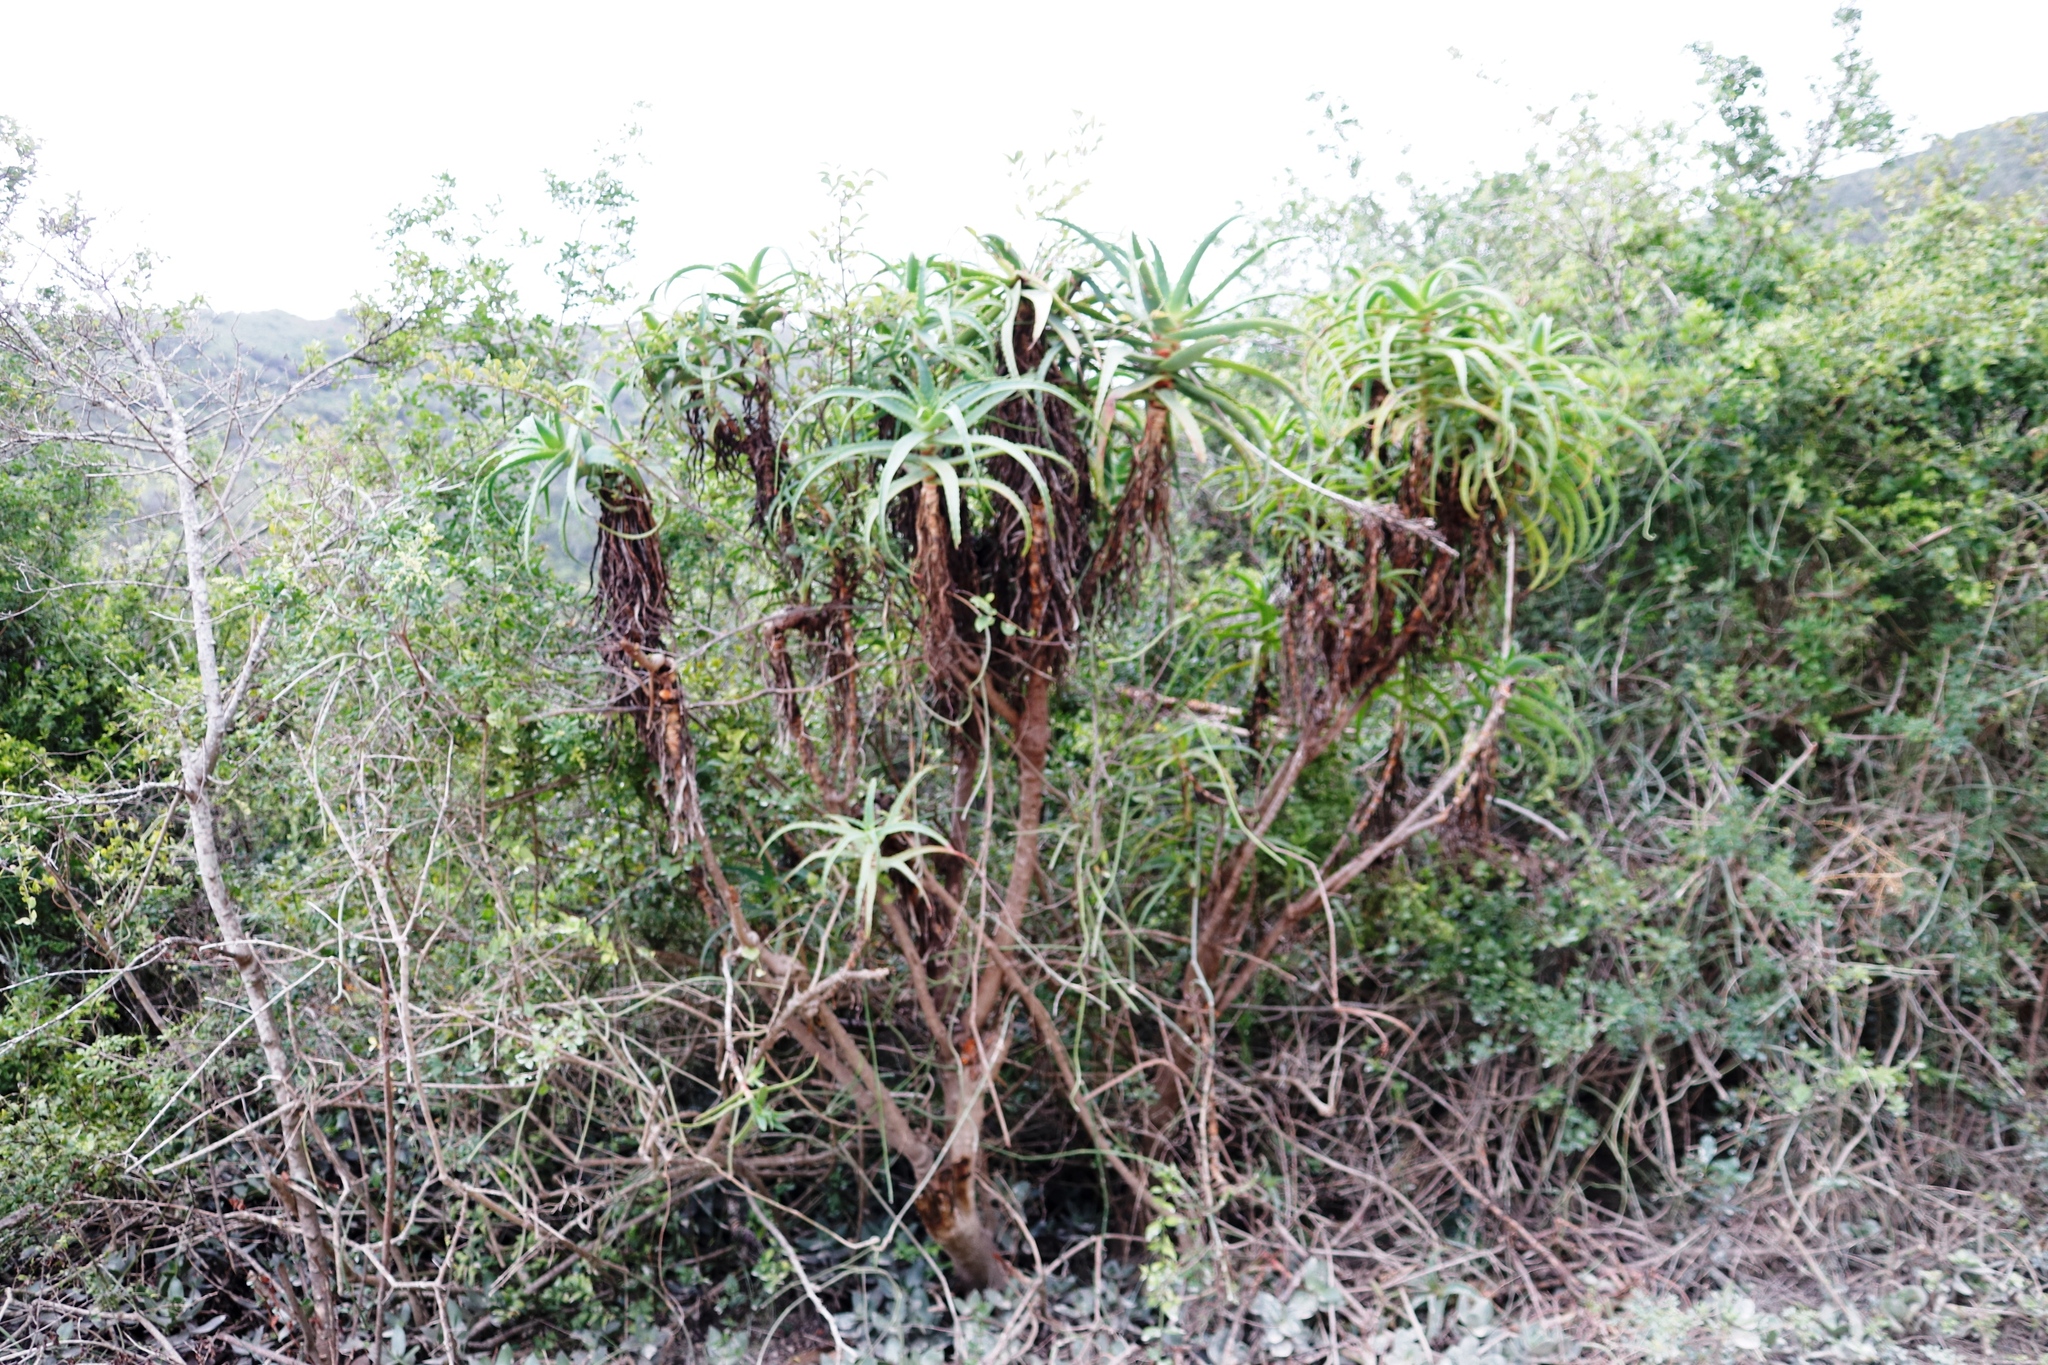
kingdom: Plantae
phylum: Tracheophyta
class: Liliopsida
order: Asparagales
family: Asphodelaceae
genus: Aloe
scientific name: Aloe arborescens
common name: Candelabra aloe
